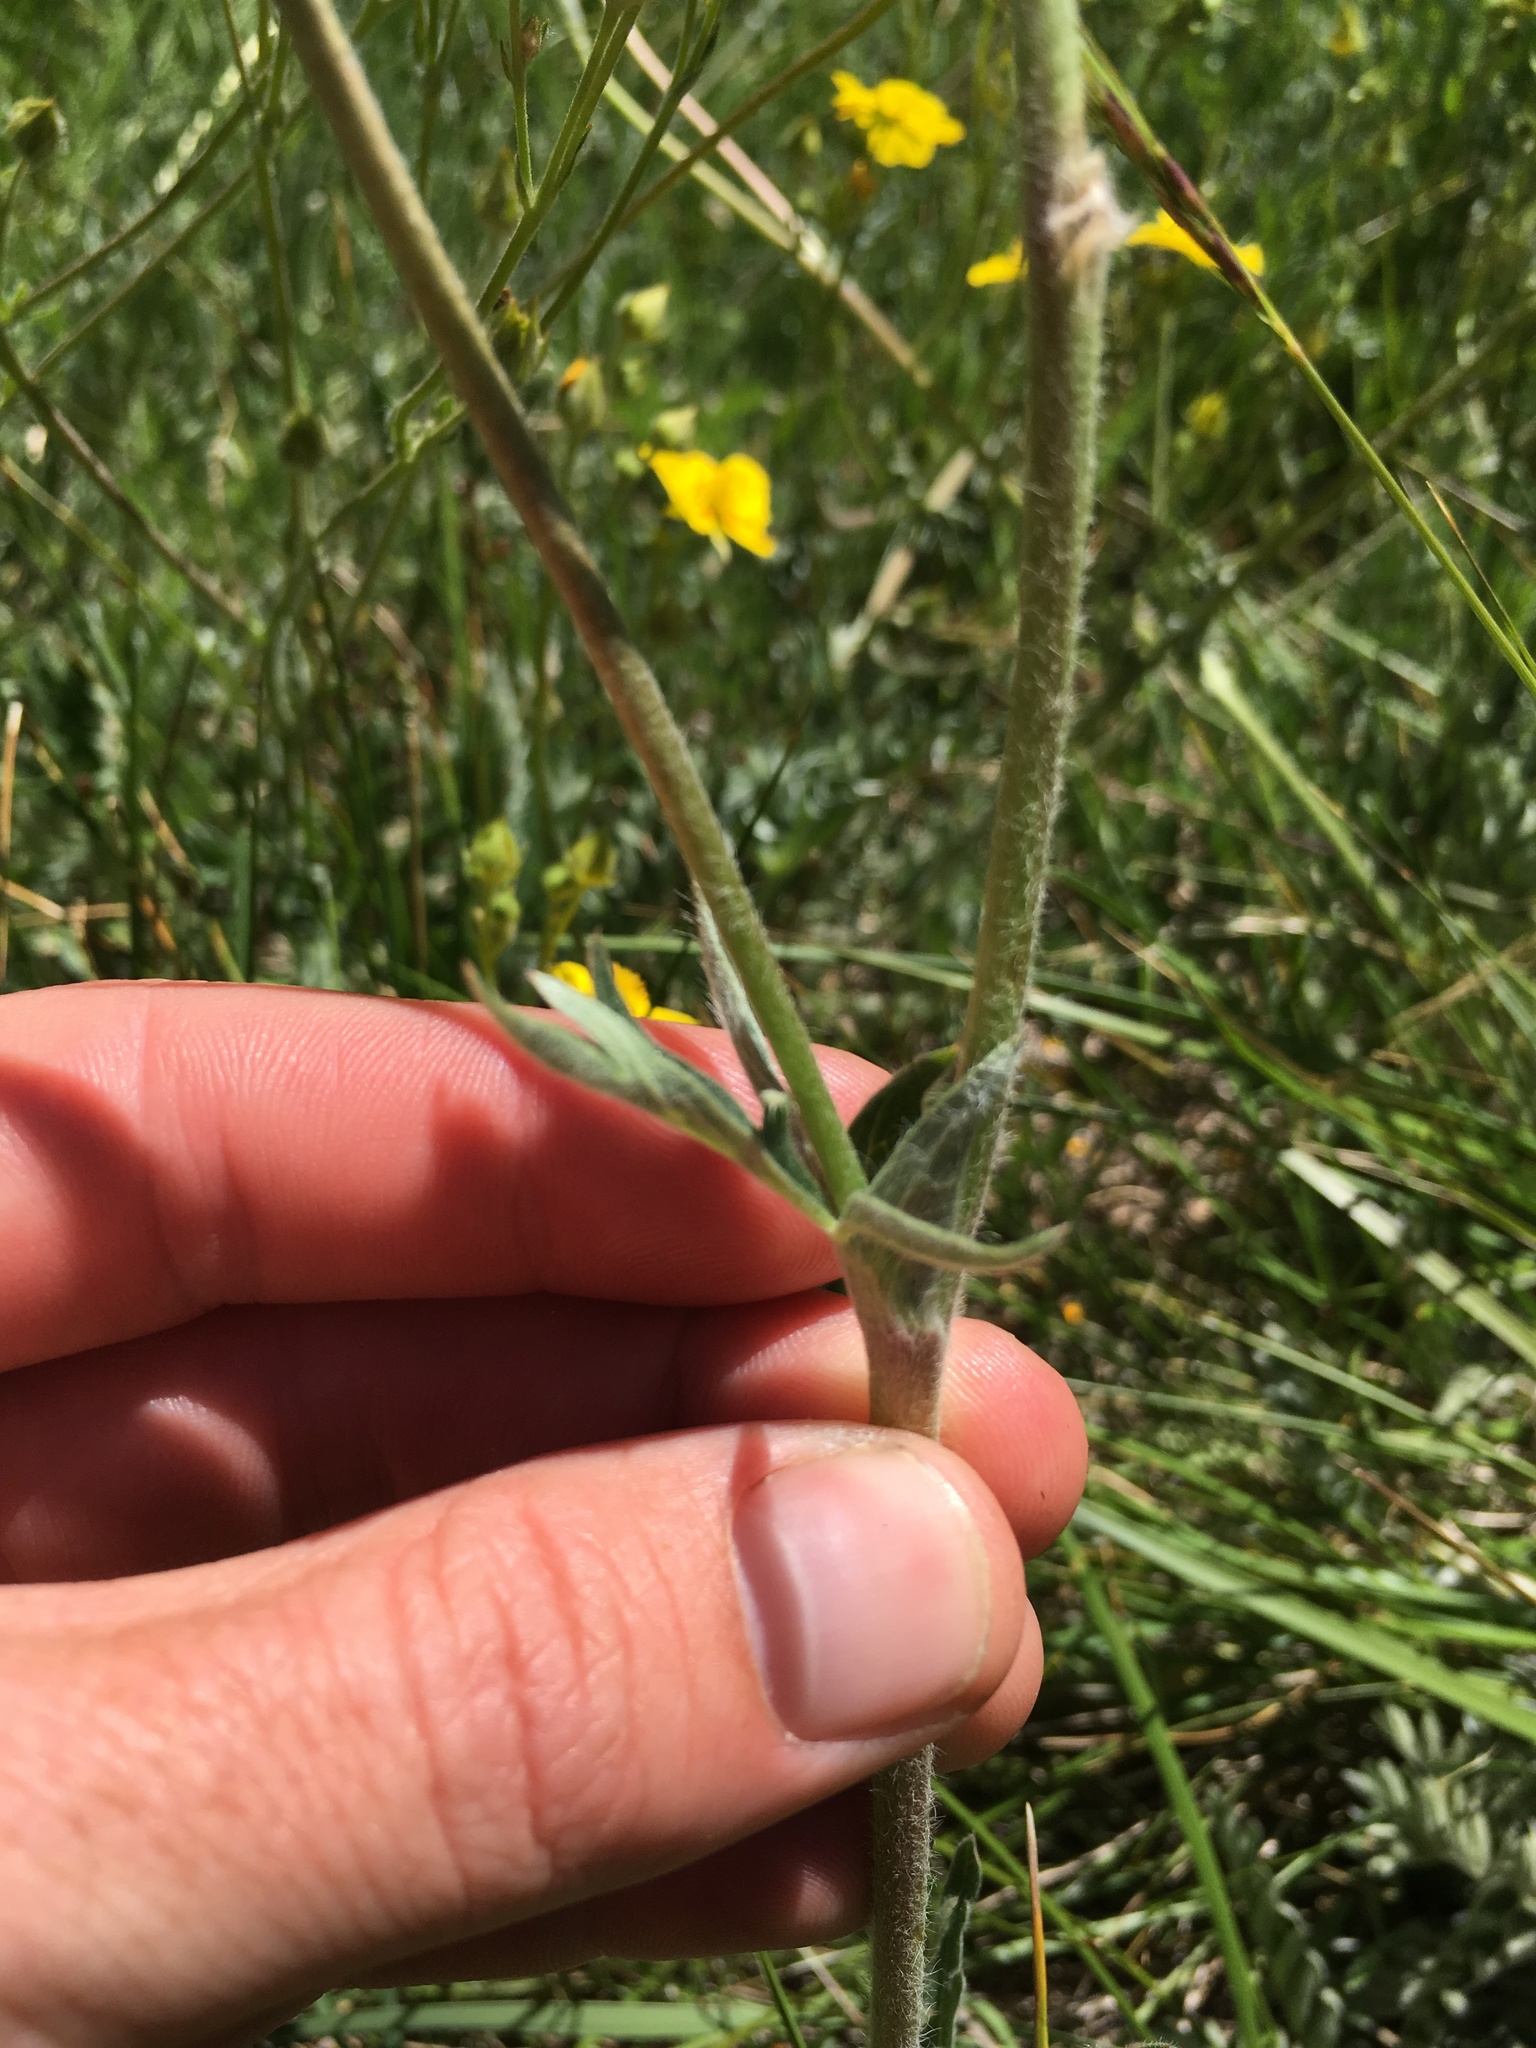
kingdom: Plantae
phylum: Tracheophyta
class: Magnoliopsida
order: Rosales
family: Rosaceae
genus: Potentilla
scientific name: Potentilla gracilis
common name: Graceful cinquefoil
